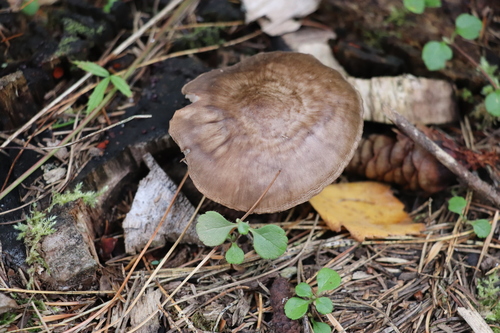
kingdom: Fungi
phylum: Basidiomycota
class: Agaricomycetes
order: Agaricales
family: Pluteaceae
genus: Pluteus
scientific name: Pluteus
